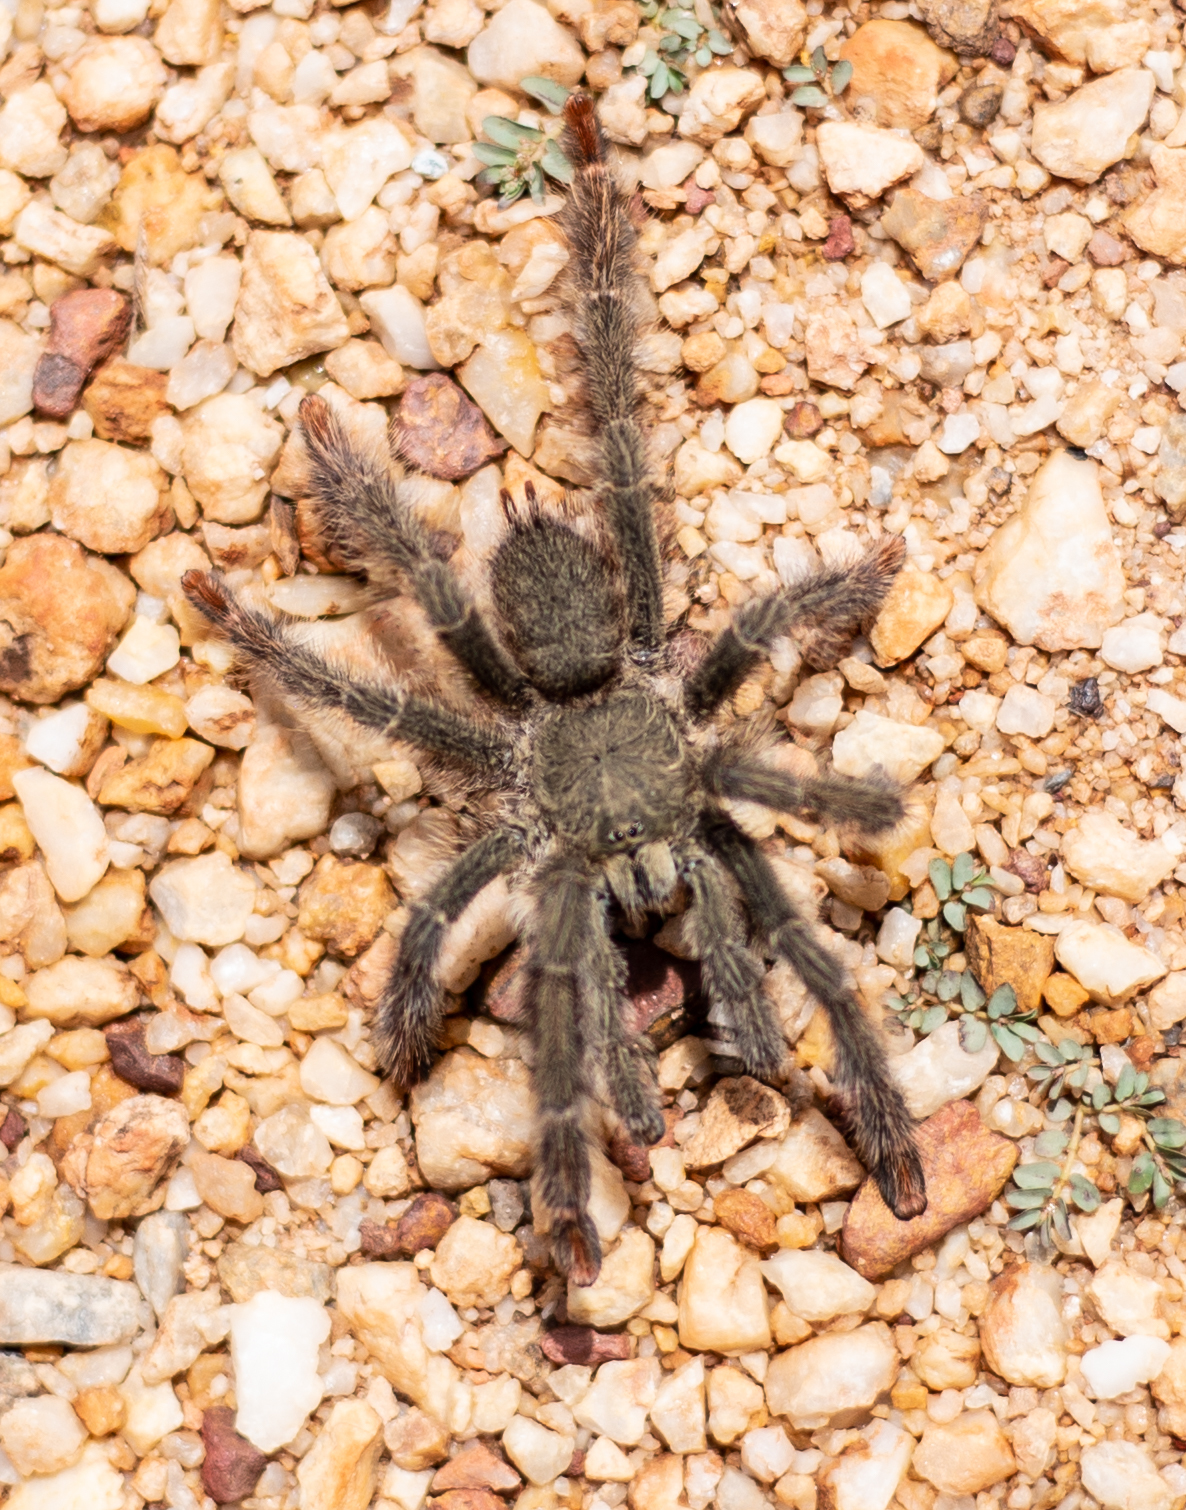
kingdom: Animalia
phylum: Arthropoda
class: Arachnida
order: Araneae
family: Theraphosidae
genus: Amazonius
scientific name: Amazonius germani
